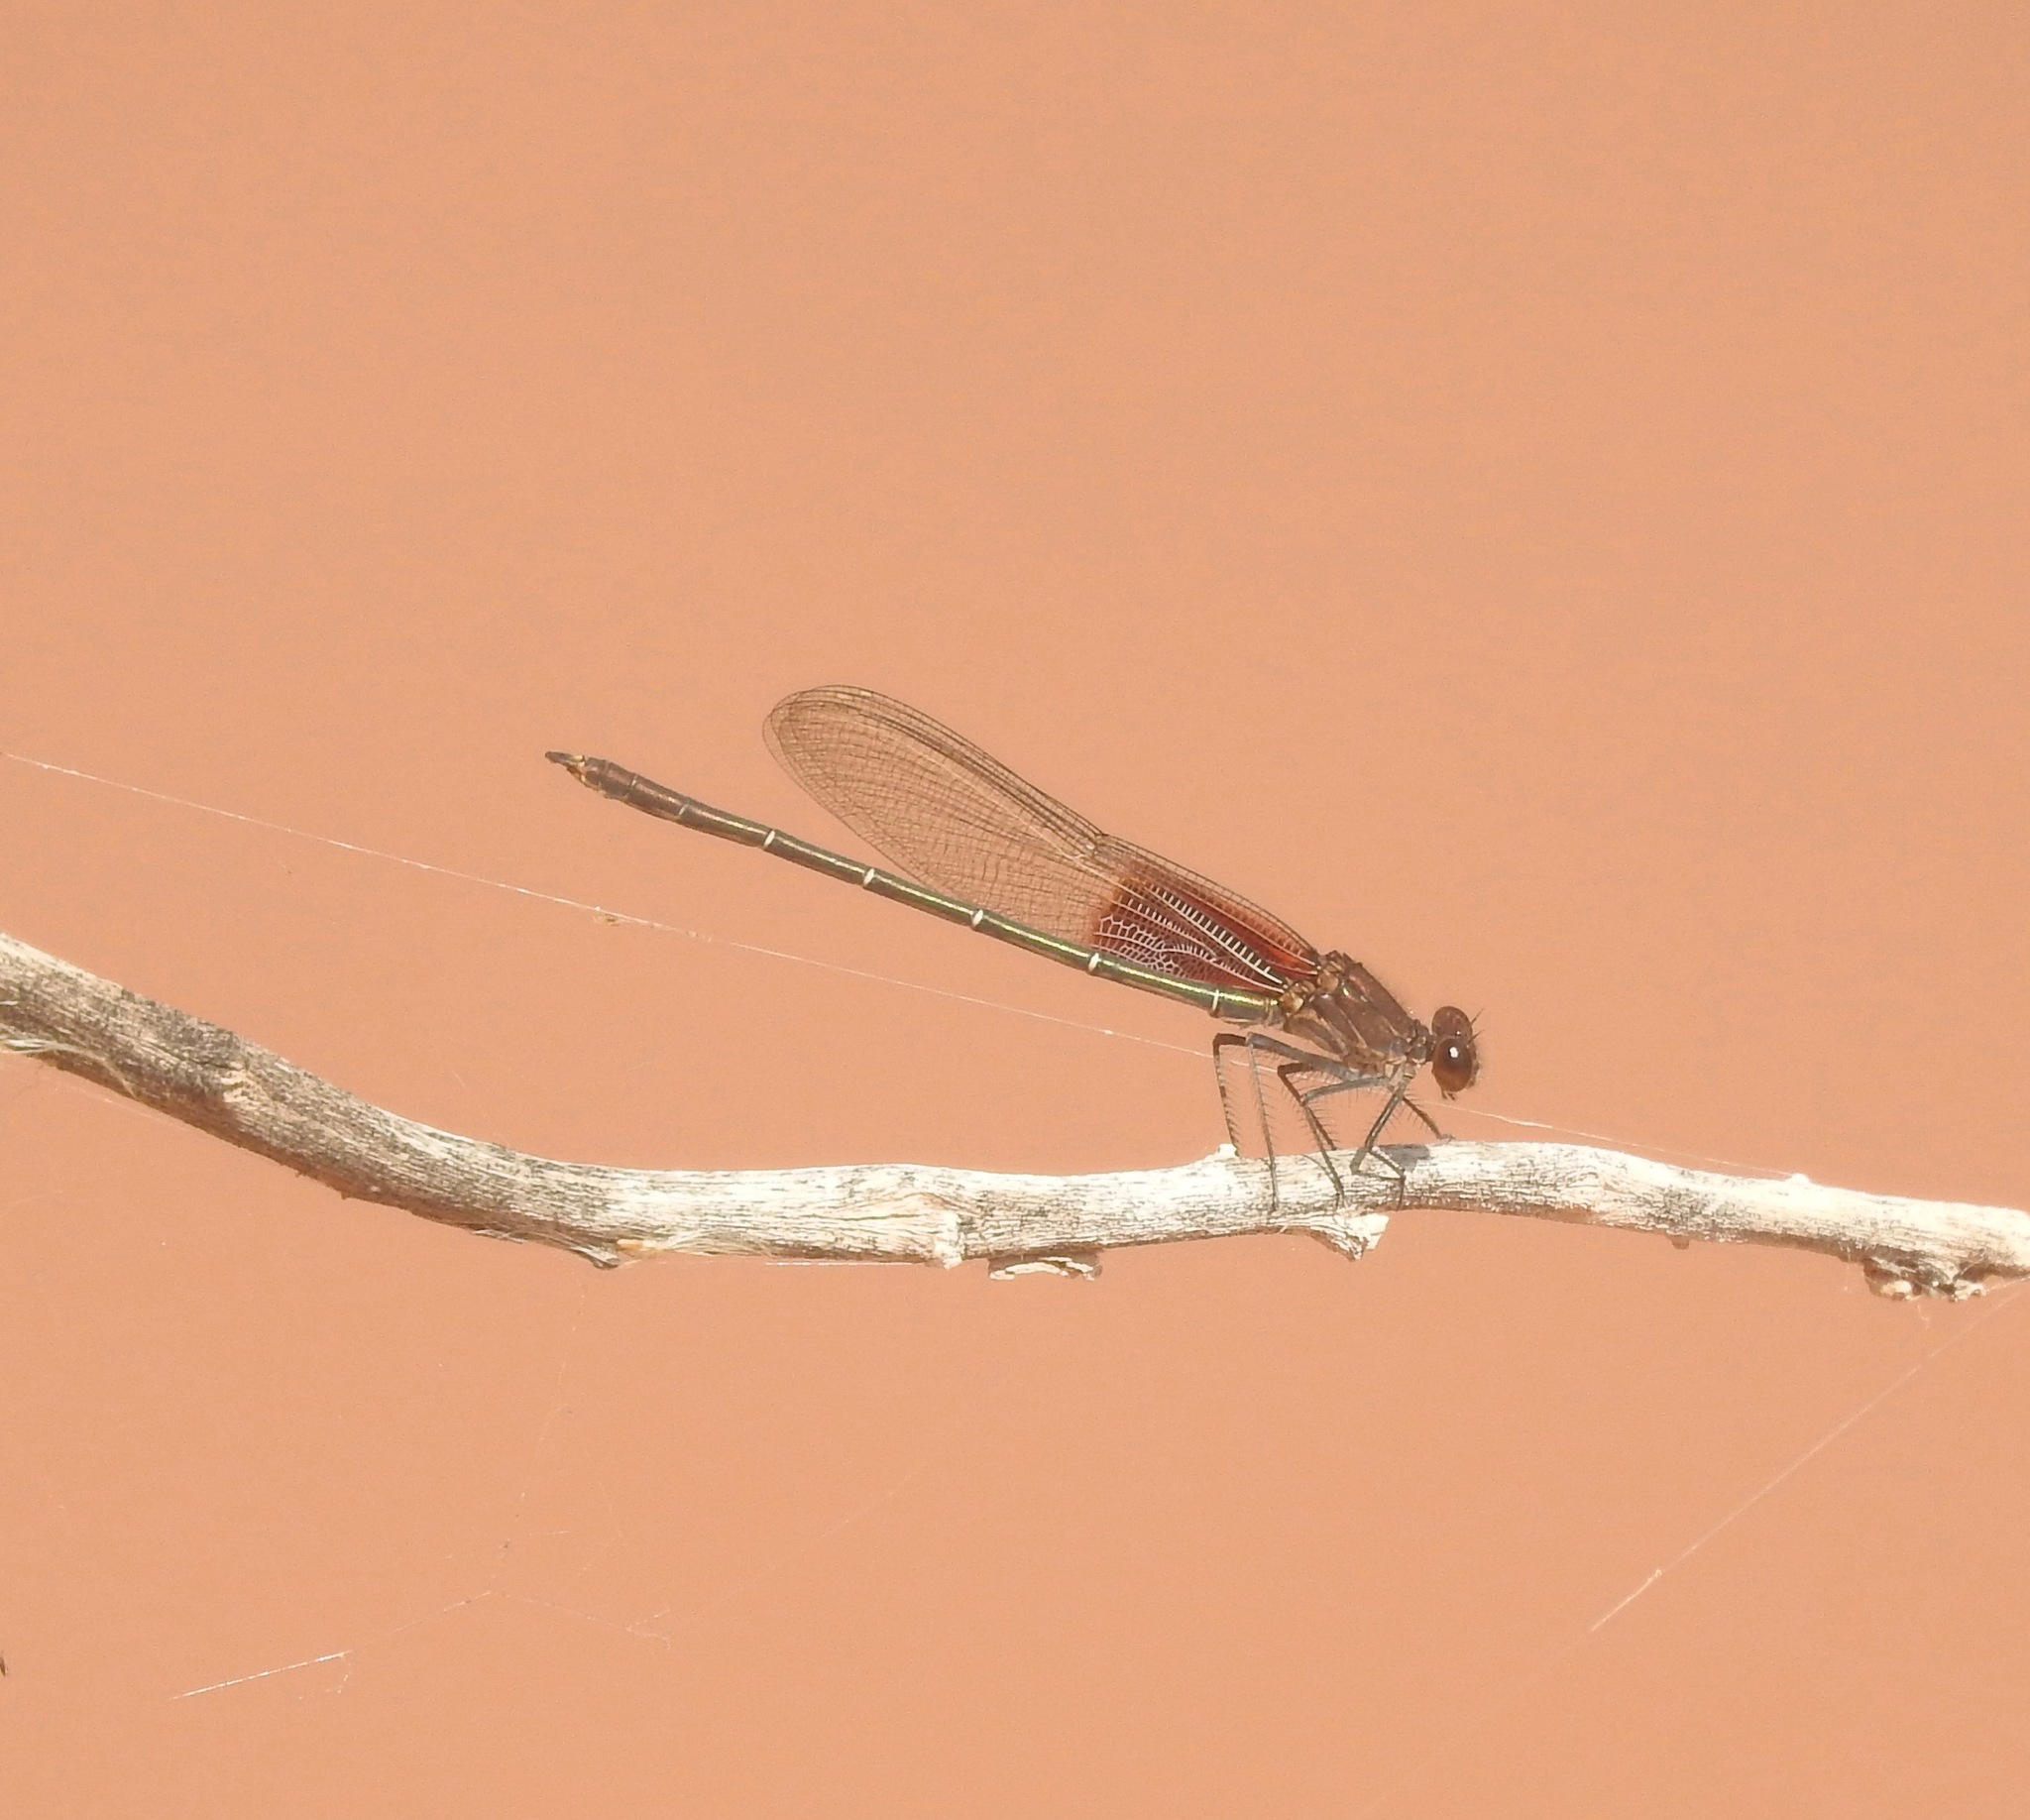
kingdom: Animalia
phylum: Arthropoda
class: Insecta
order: Odonata
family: Calopterygidae
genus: Hetaerina
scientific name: Hetaerina americana
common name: American rubyspot
